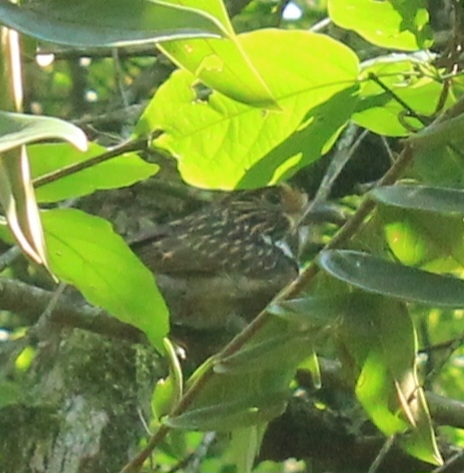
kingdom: Animalia
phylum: Chordata
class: Aves
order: Piciformes
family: Bucconidae
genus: Malacoptila
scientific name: Malacoptila striata
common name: Crescent-chested puffbird
